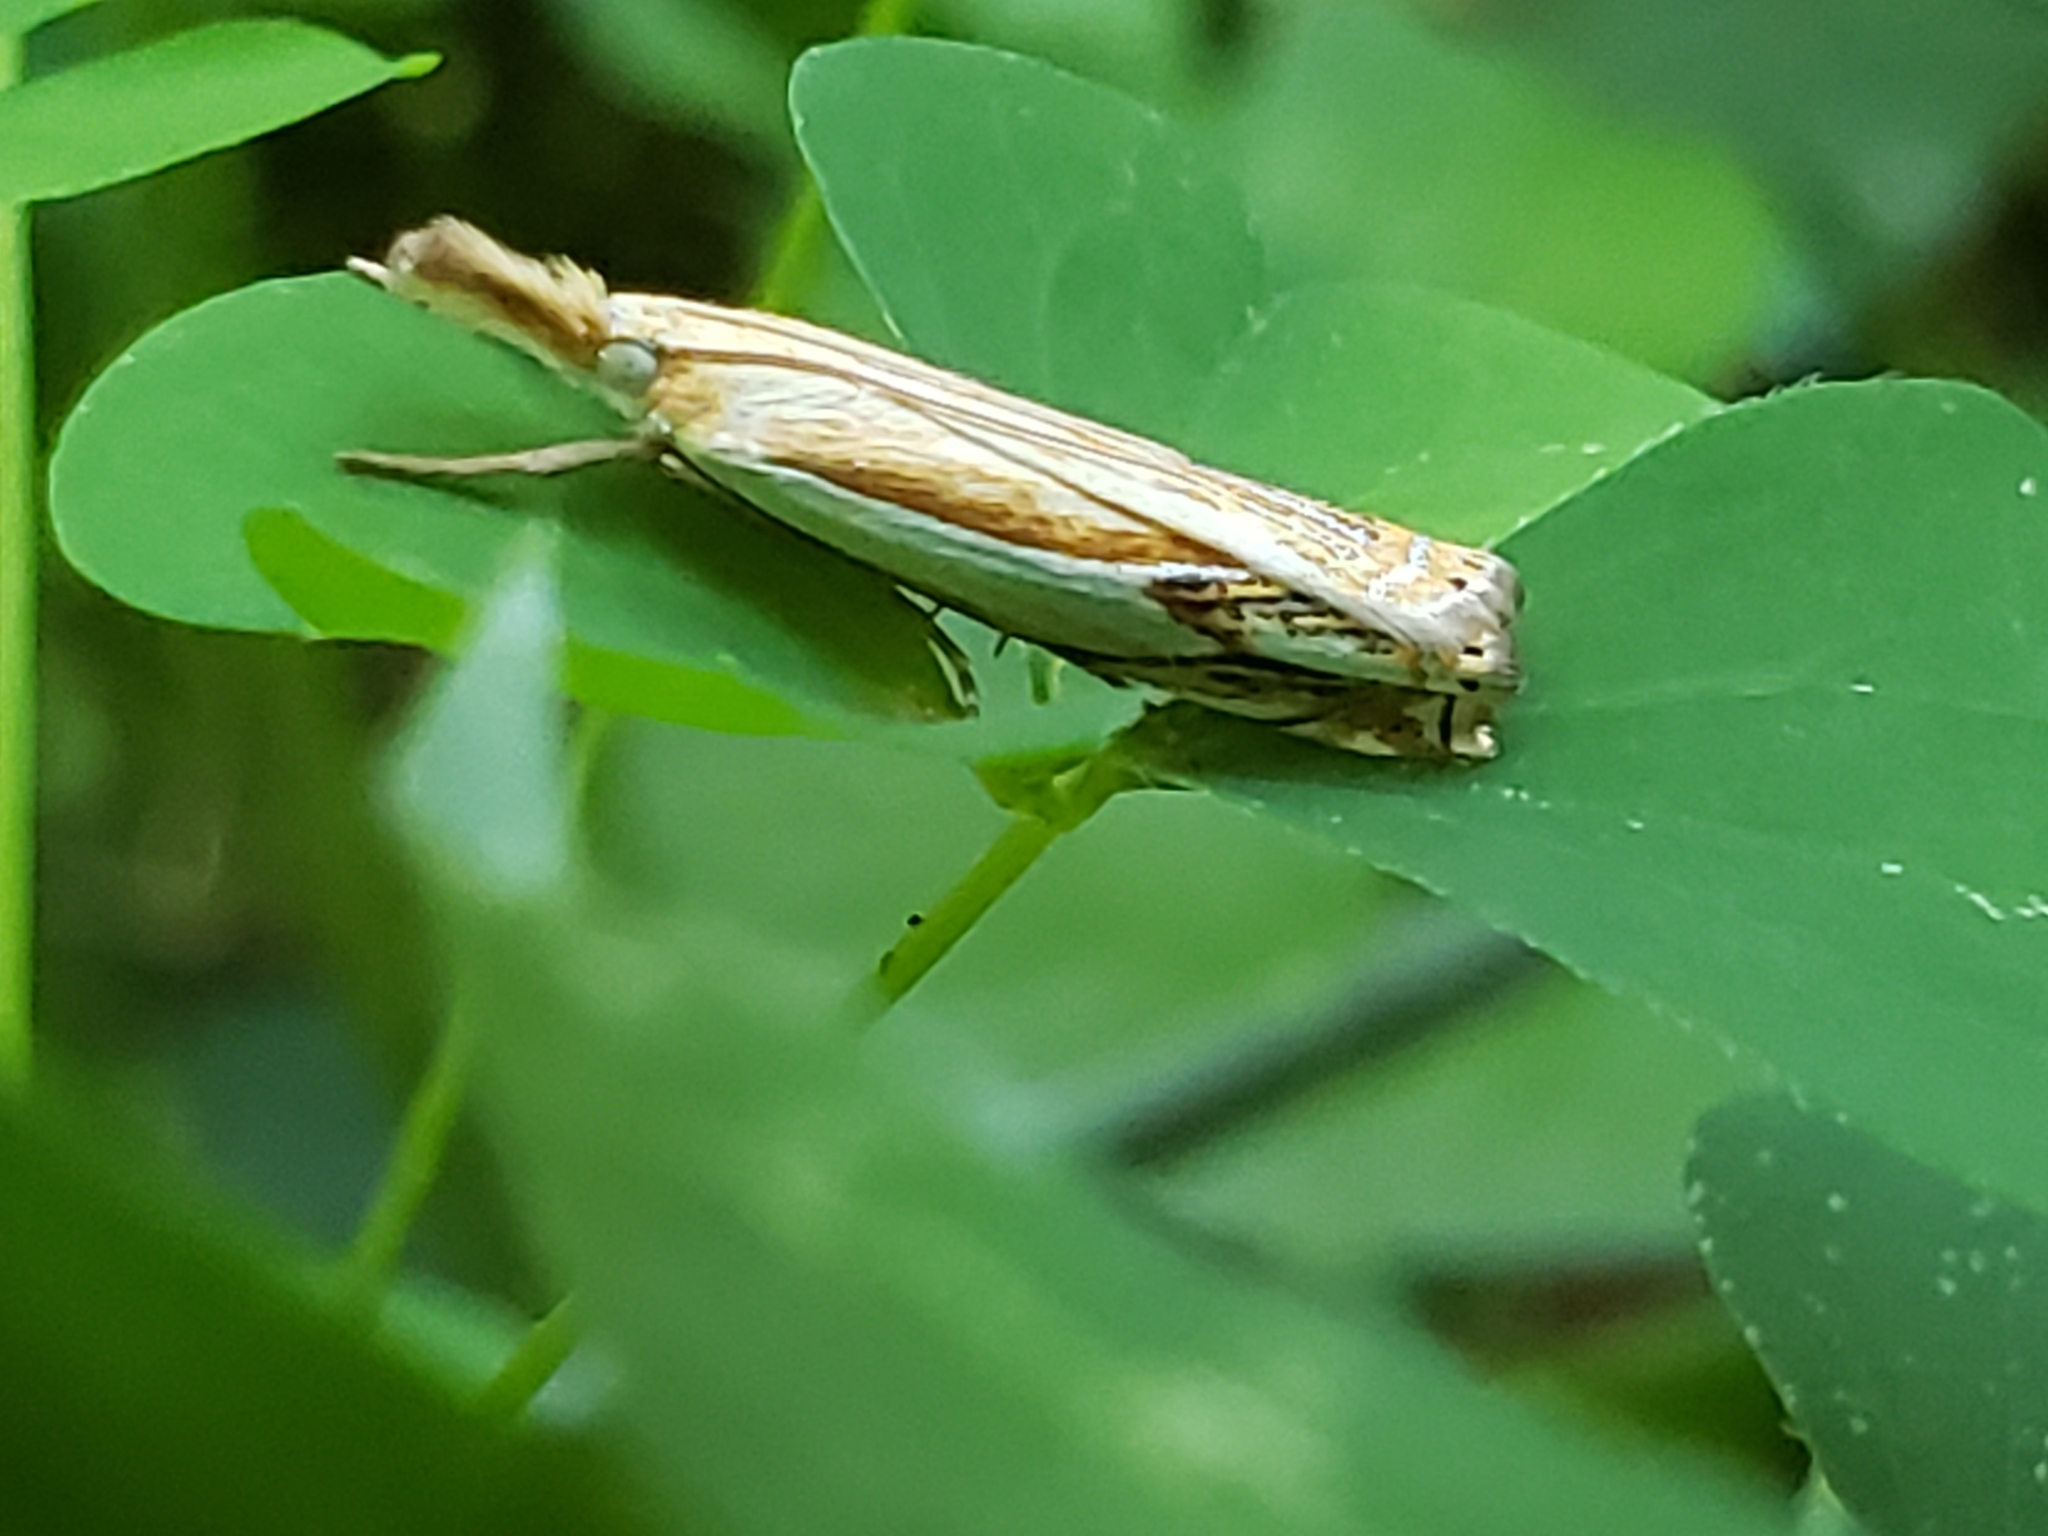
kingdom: Animalia
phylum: Arthropoda
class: Insecta
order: Lepidoptera
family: Crambidae
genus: Crambus
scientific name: Crambus agitatellus
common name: Double-banded grass-veneer
